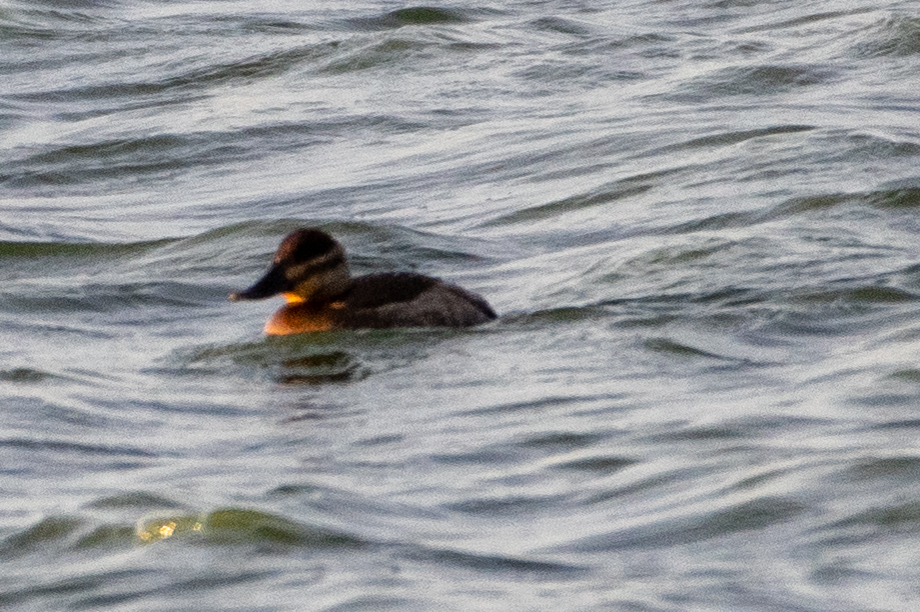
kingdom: Animalia
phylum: Chordata
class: Aves
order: Anseriformes
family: Anatidae
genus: Oxyura
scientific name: Oxyura jamaicensis
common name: Ruddy duck
